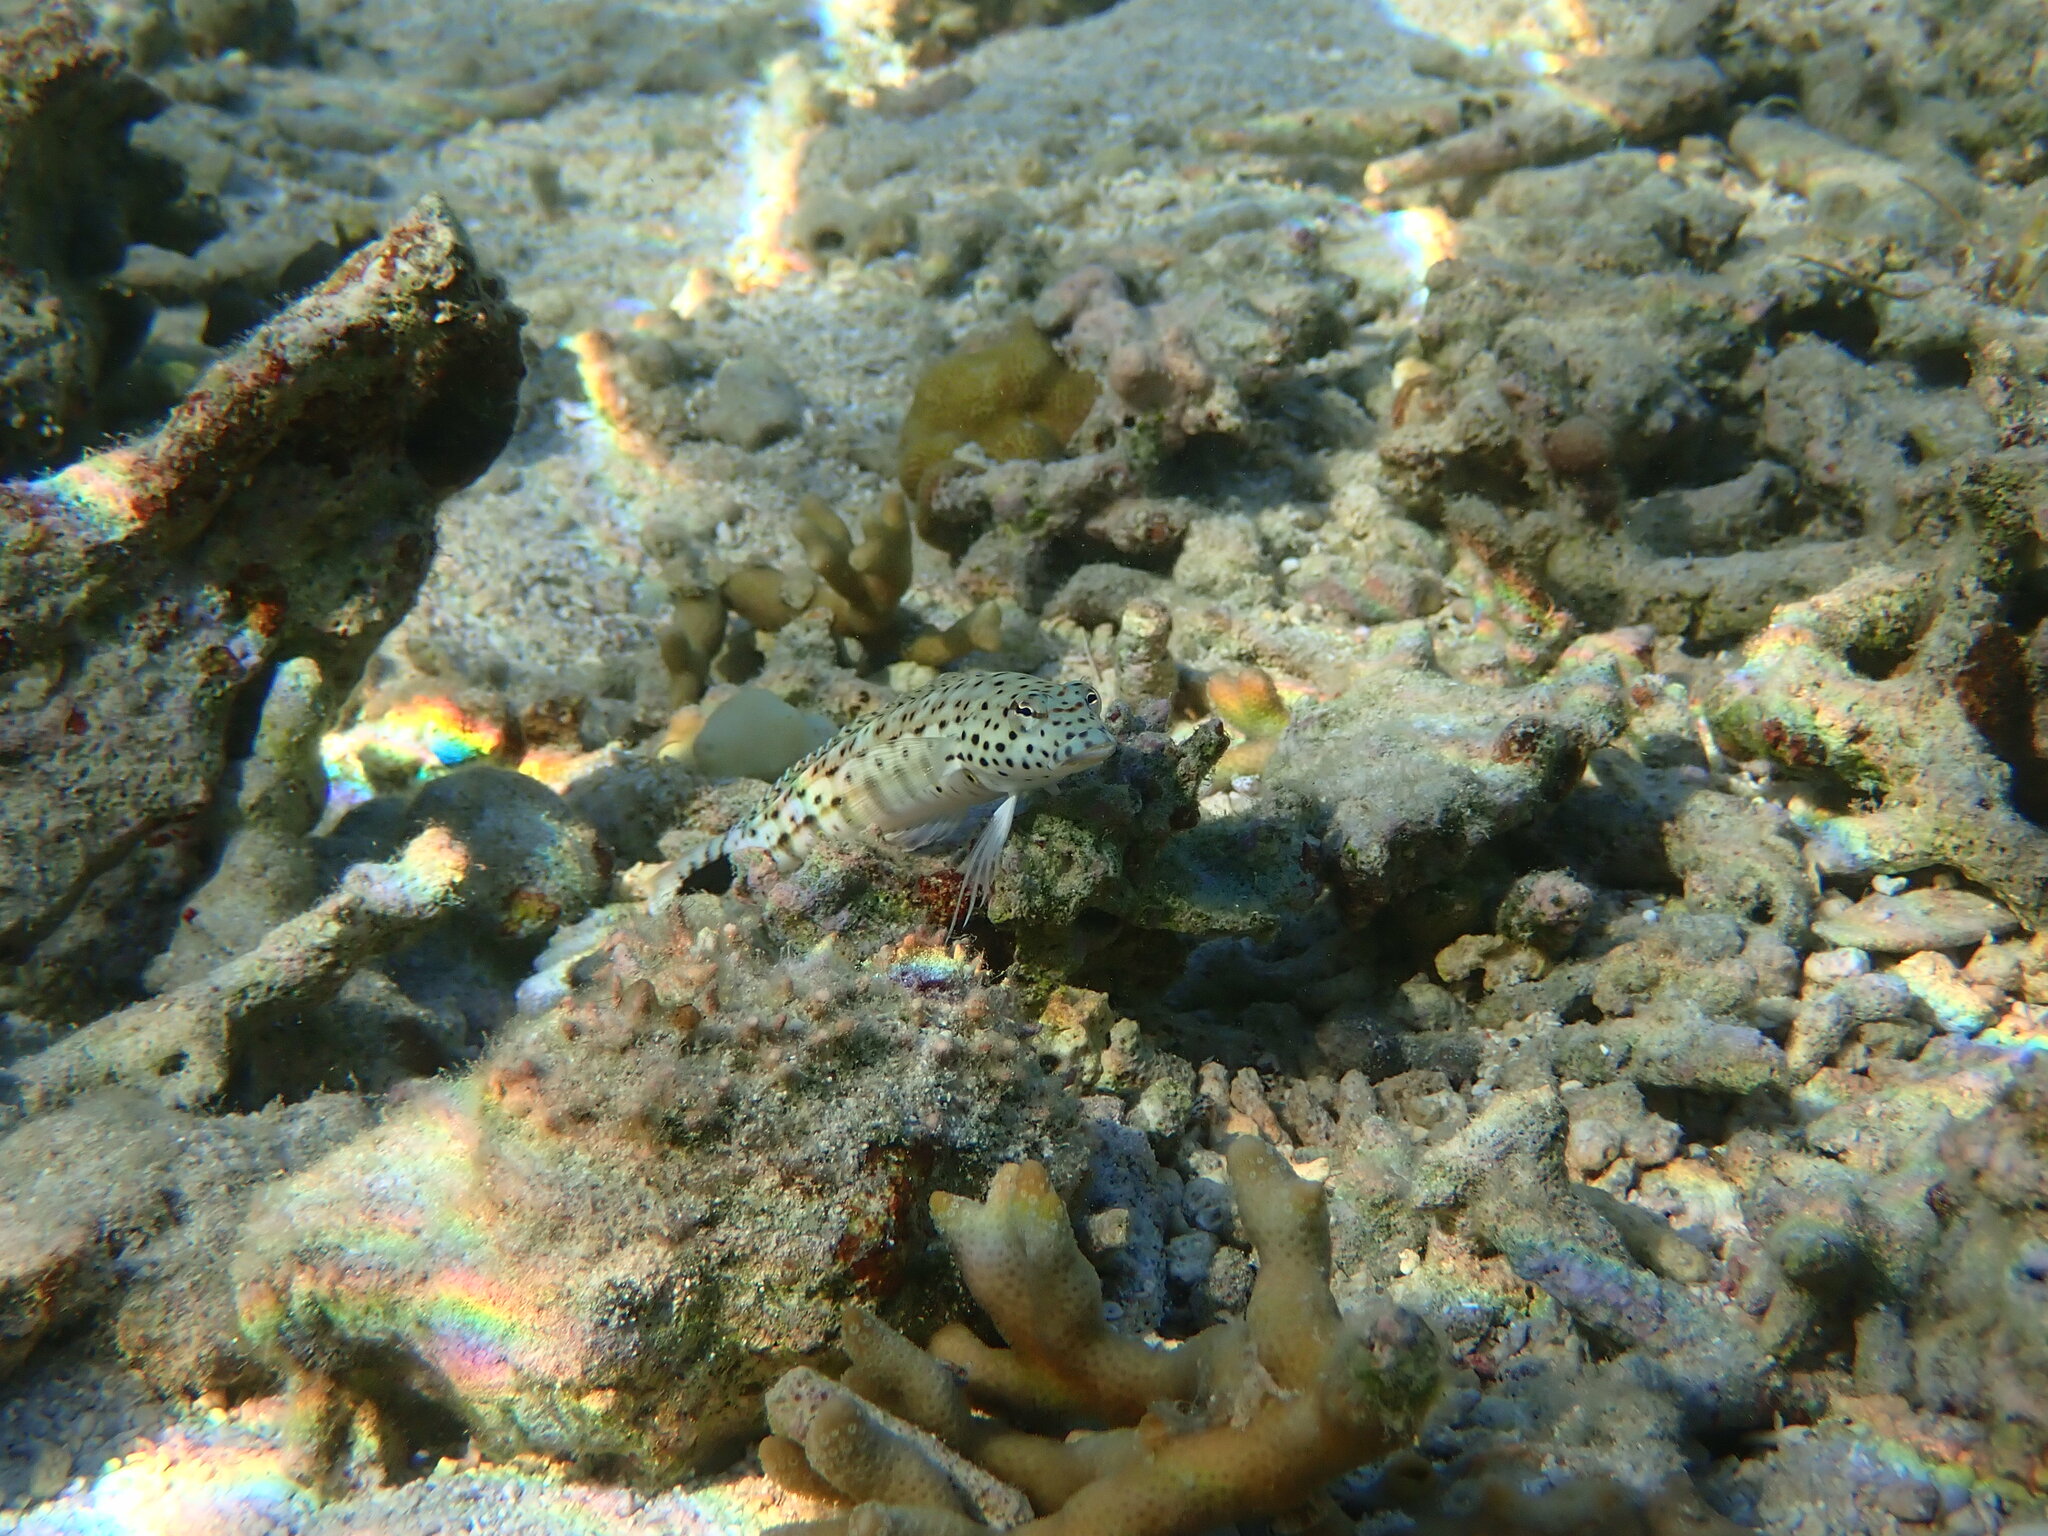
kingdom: Animalia
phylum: Chordata
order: Perciformes
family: Pinguipedidae
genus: Parapercis
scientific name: Parapercis xanthogramma
